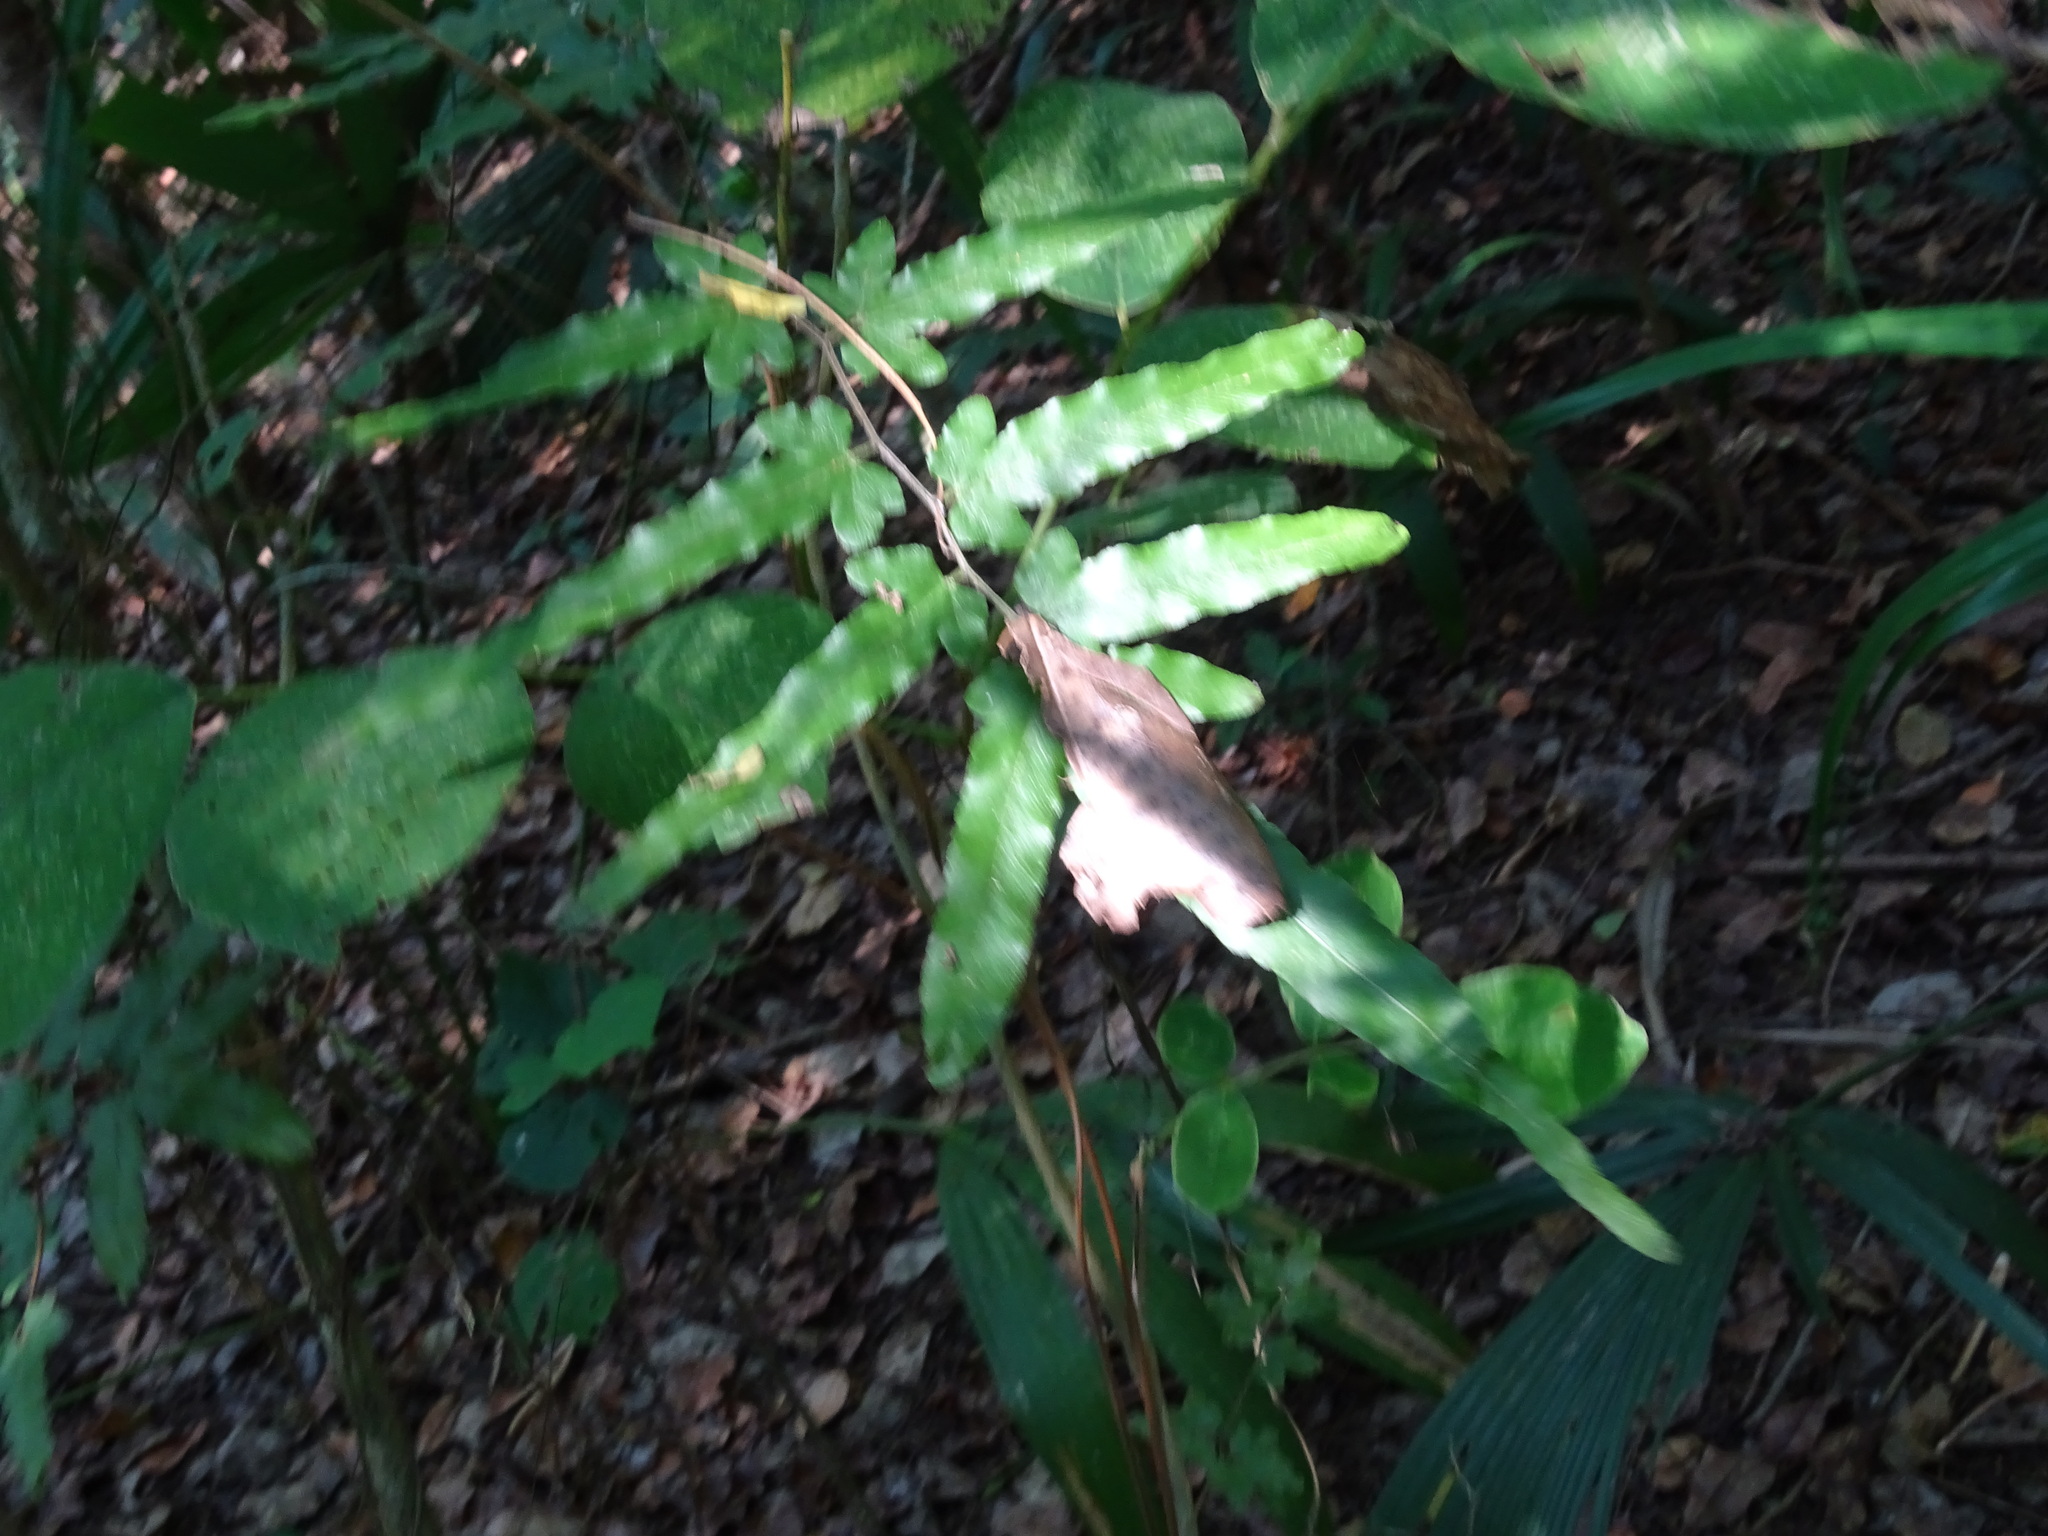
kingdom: Plantae
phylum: Tracheophyta
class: Polypodiopsida
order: Schizaeales
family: Lygodiaceae
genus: Lygodium
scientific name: Lygodium venustum
